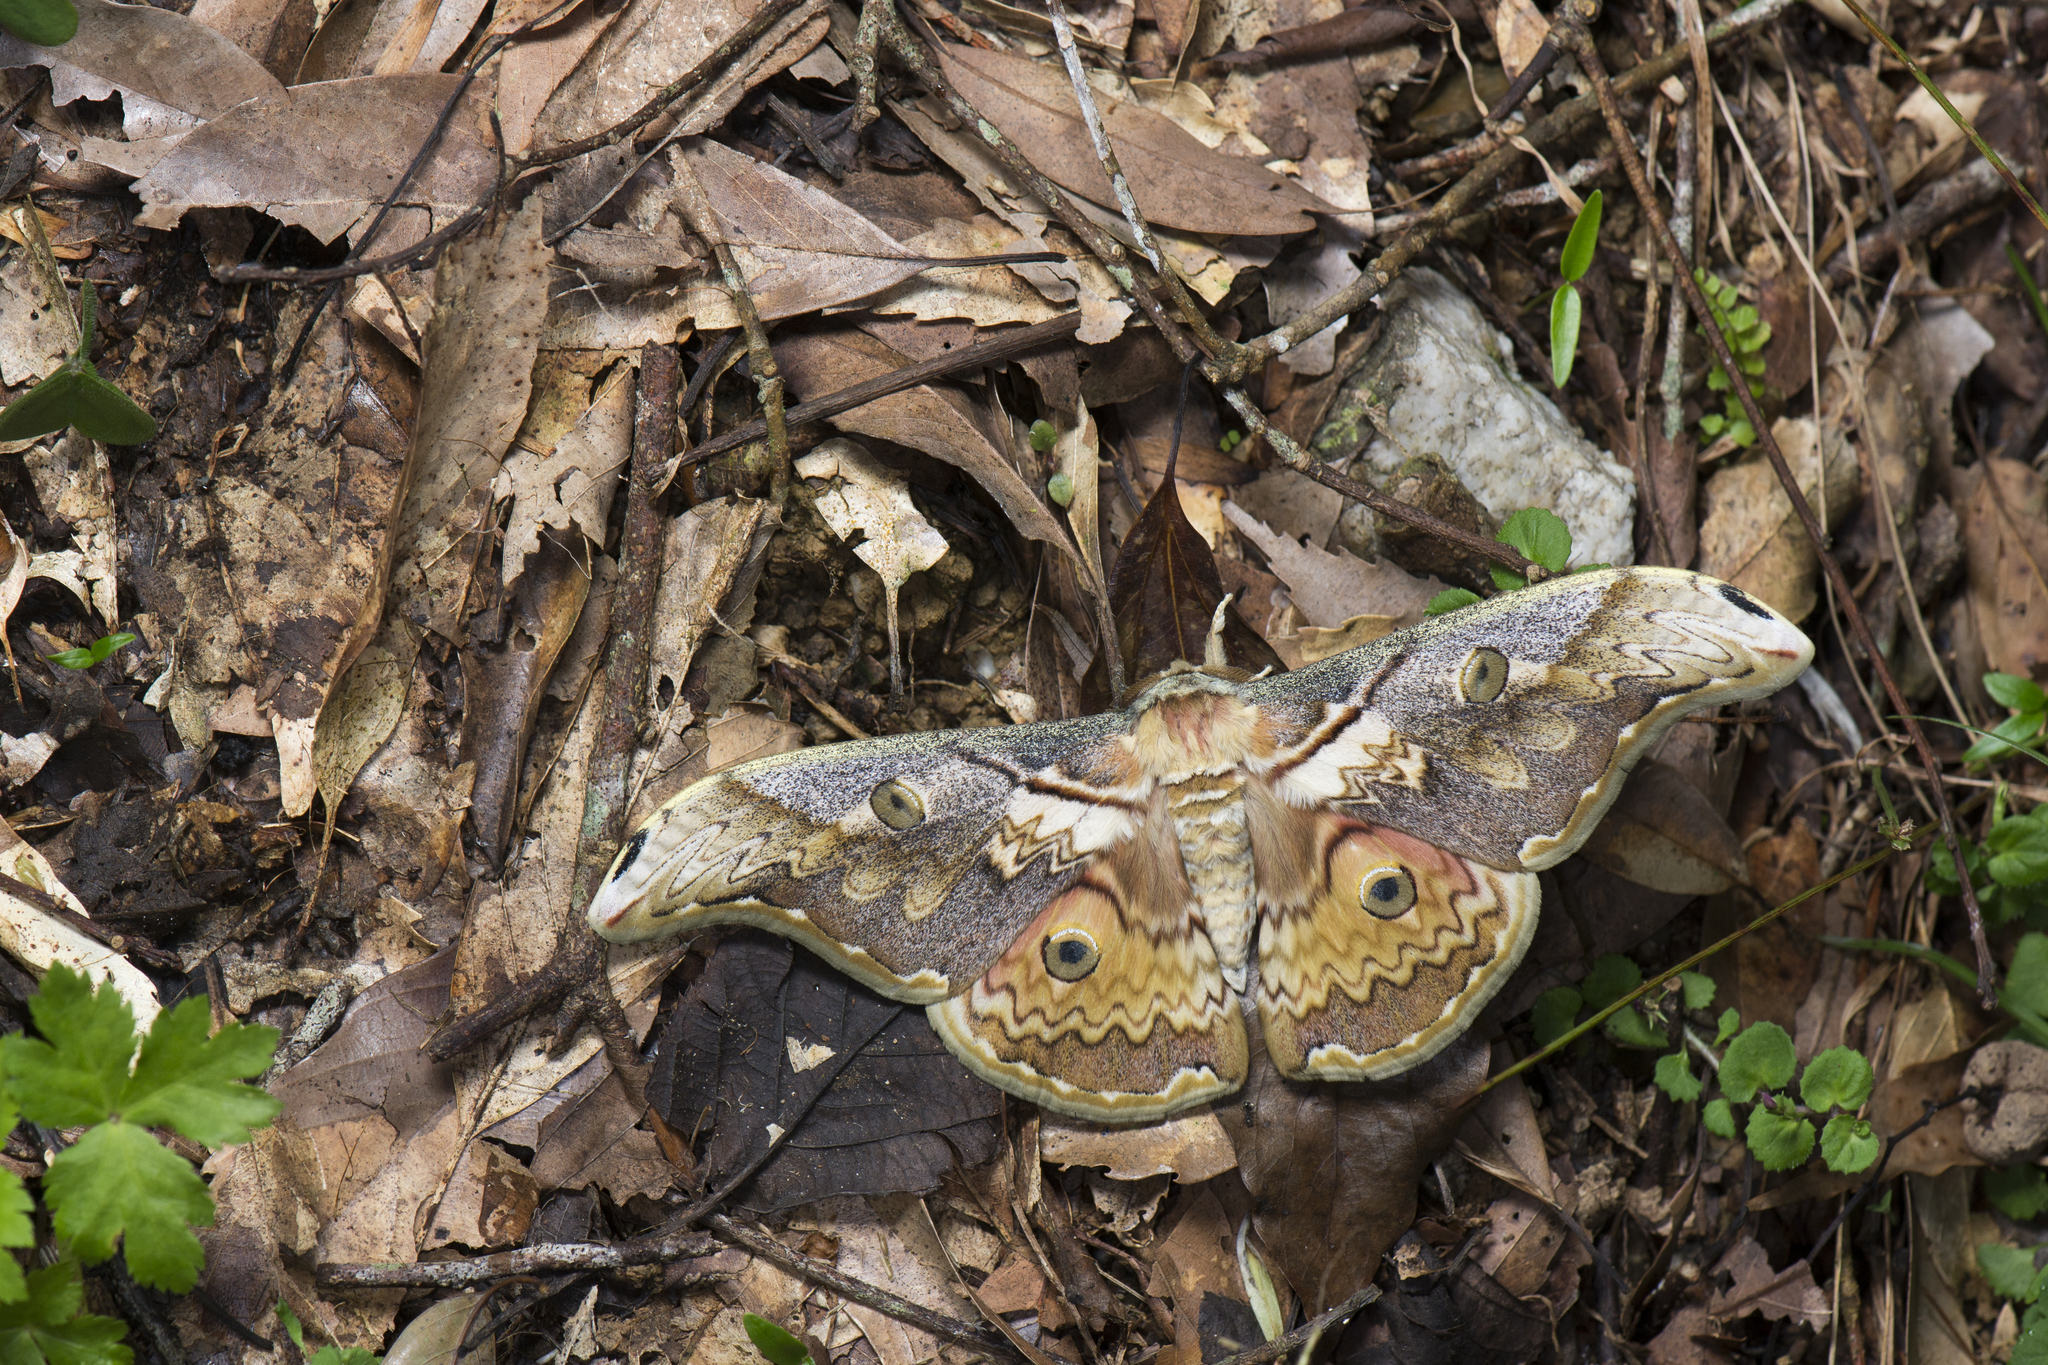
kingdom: Animalia
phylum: Arthropoda
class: Insecta
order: Lepidoptera
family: Saturniidae
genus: Rinaca
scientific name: Rinaca thibeta
